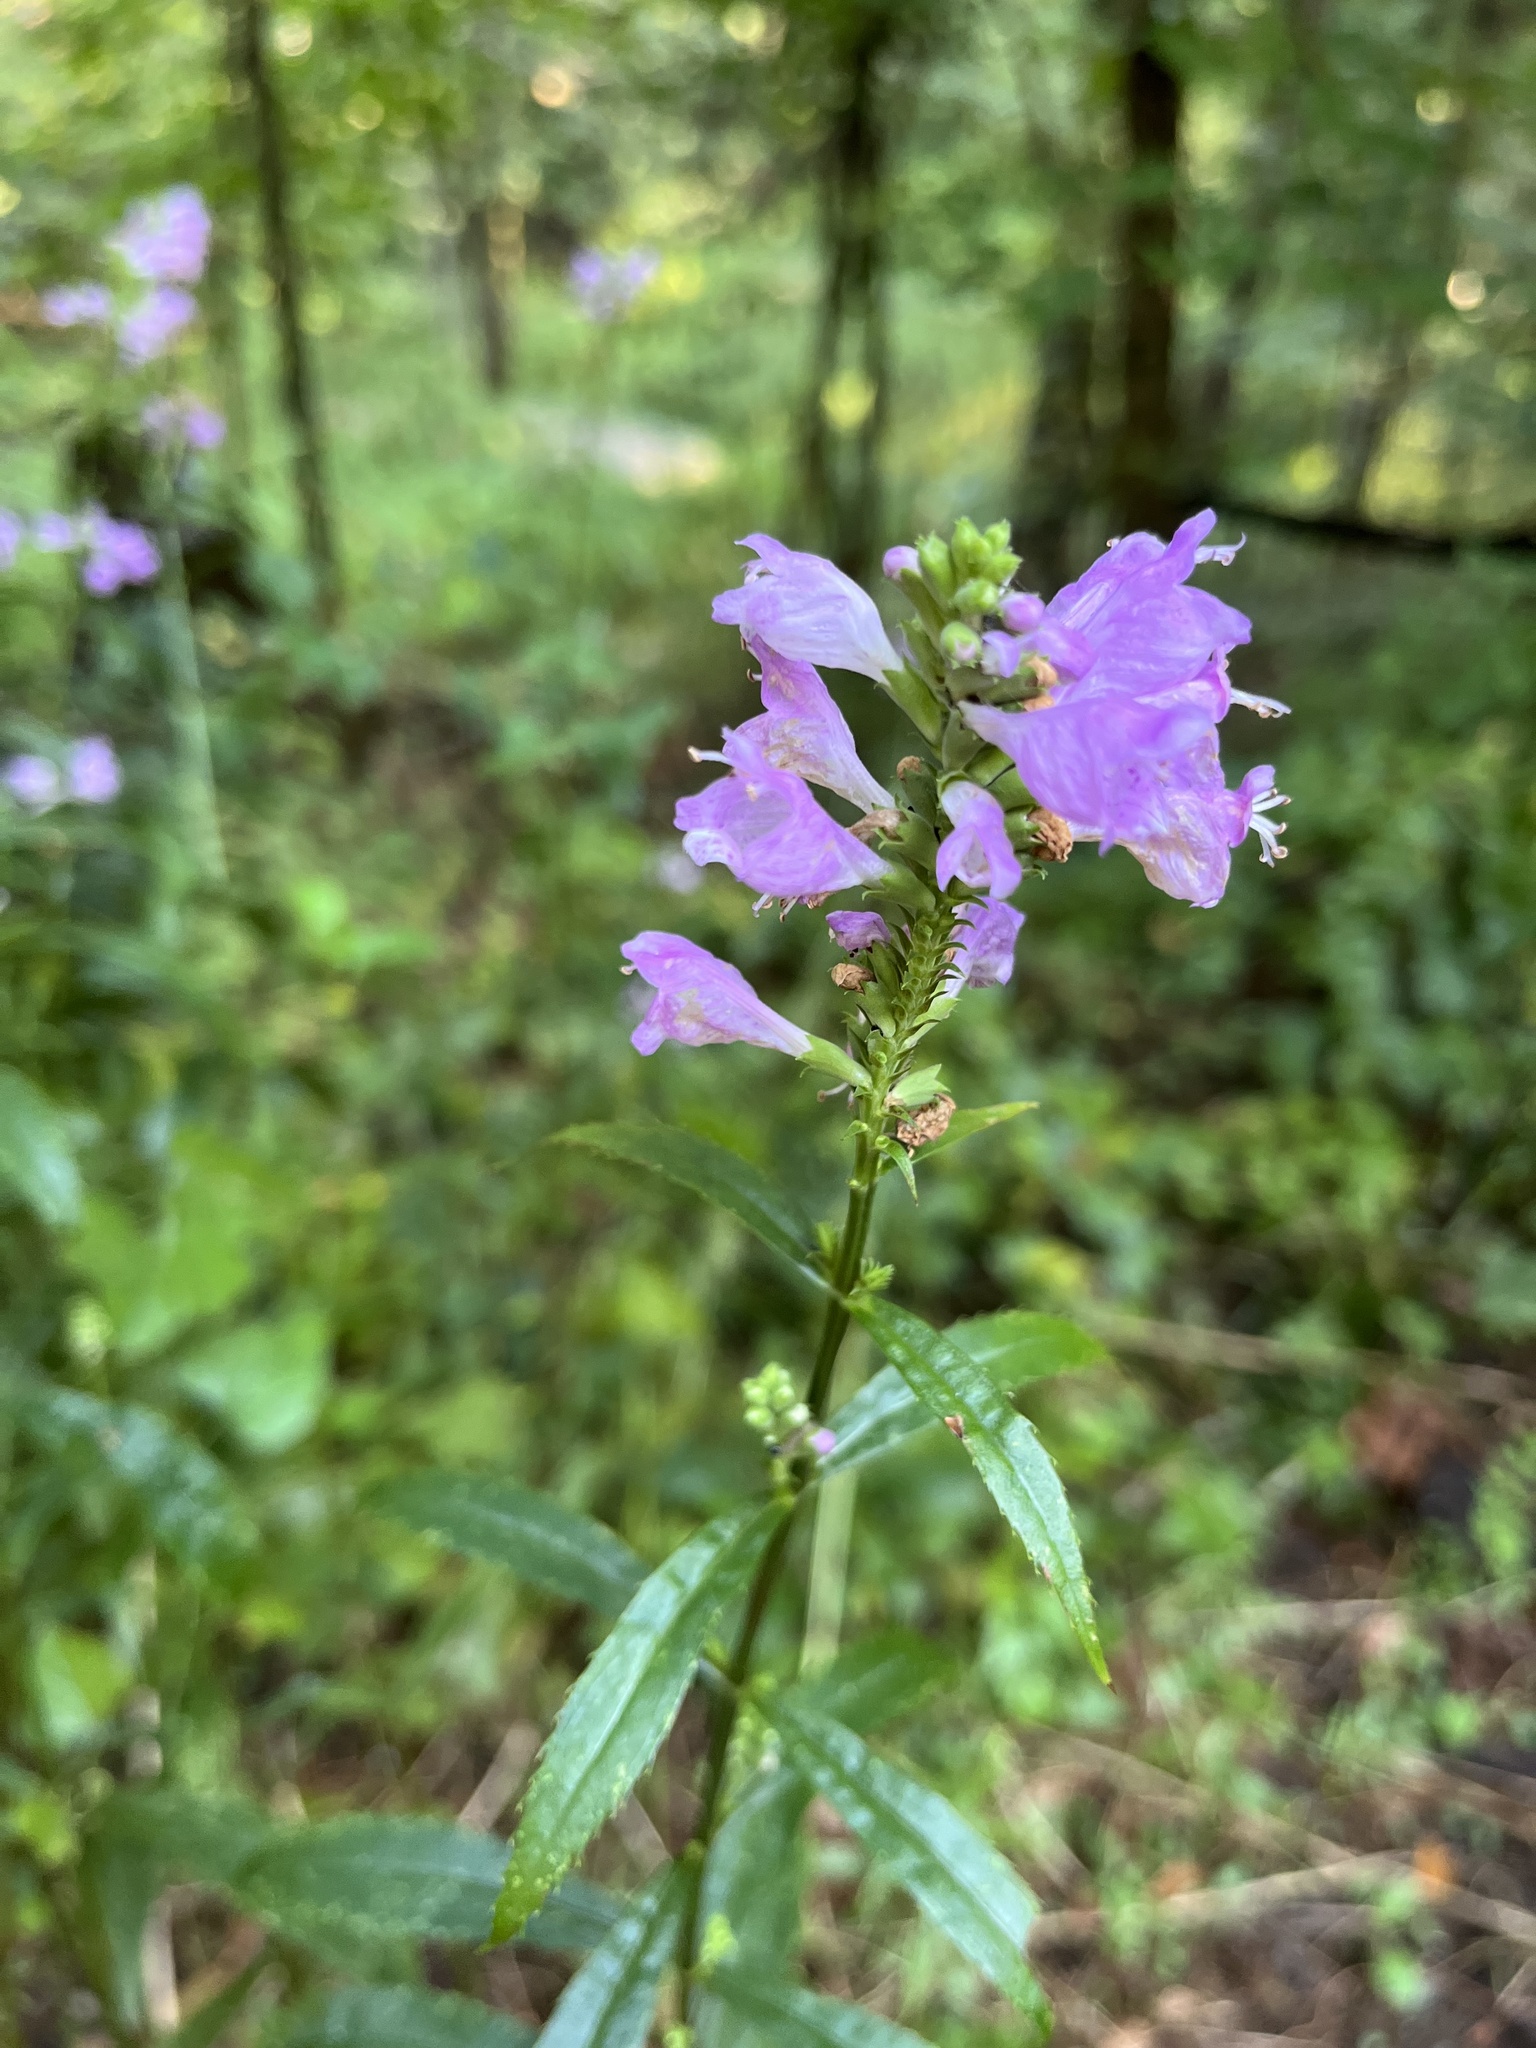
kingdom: Plantae
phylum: Tracheophyta
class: Magnoliopsida
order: Lamiales
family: Lamiaceae
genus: Physostegia
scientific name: Physostegia virginiana
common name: Obedient-plant
